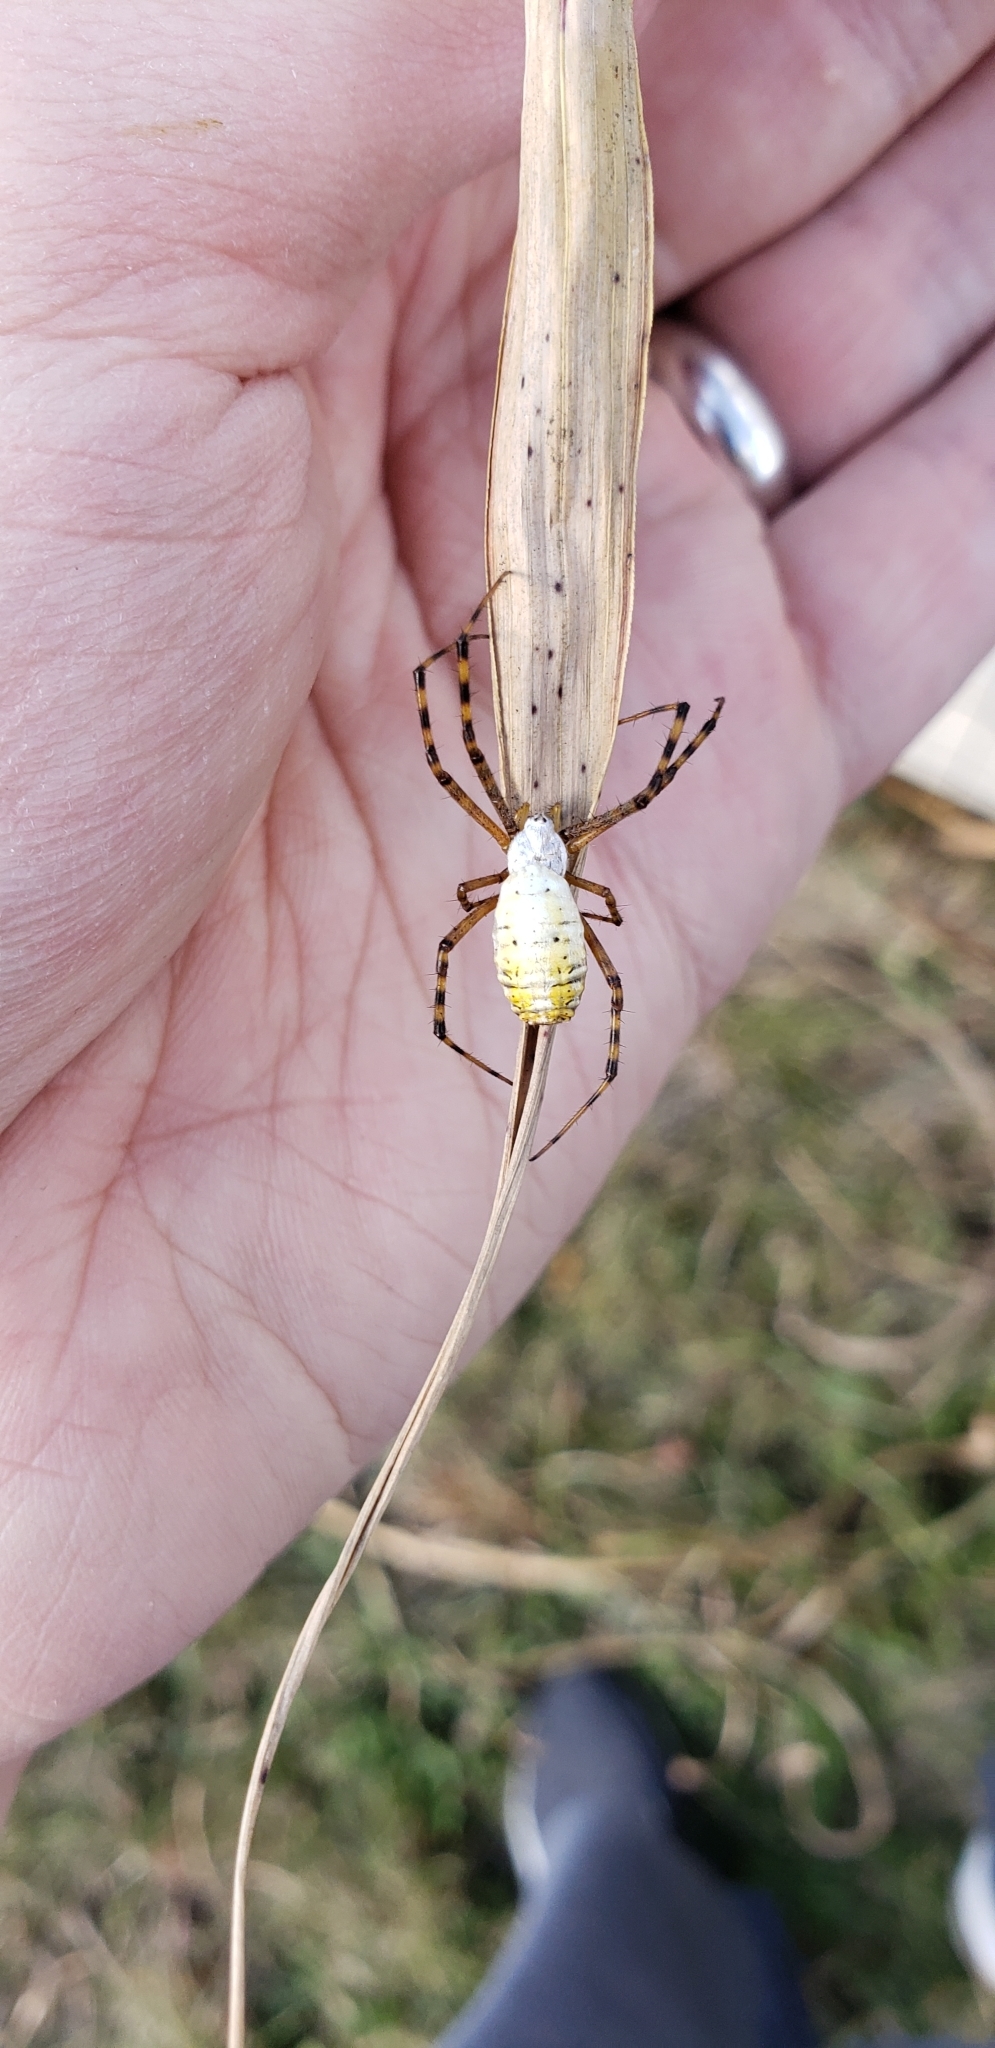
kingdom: Animalia
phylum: Arthropoda
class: Arachnida
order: Araneae
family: Araneidae
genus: Argiope
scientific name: Argiope trifasciata
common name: Banded garden spider
